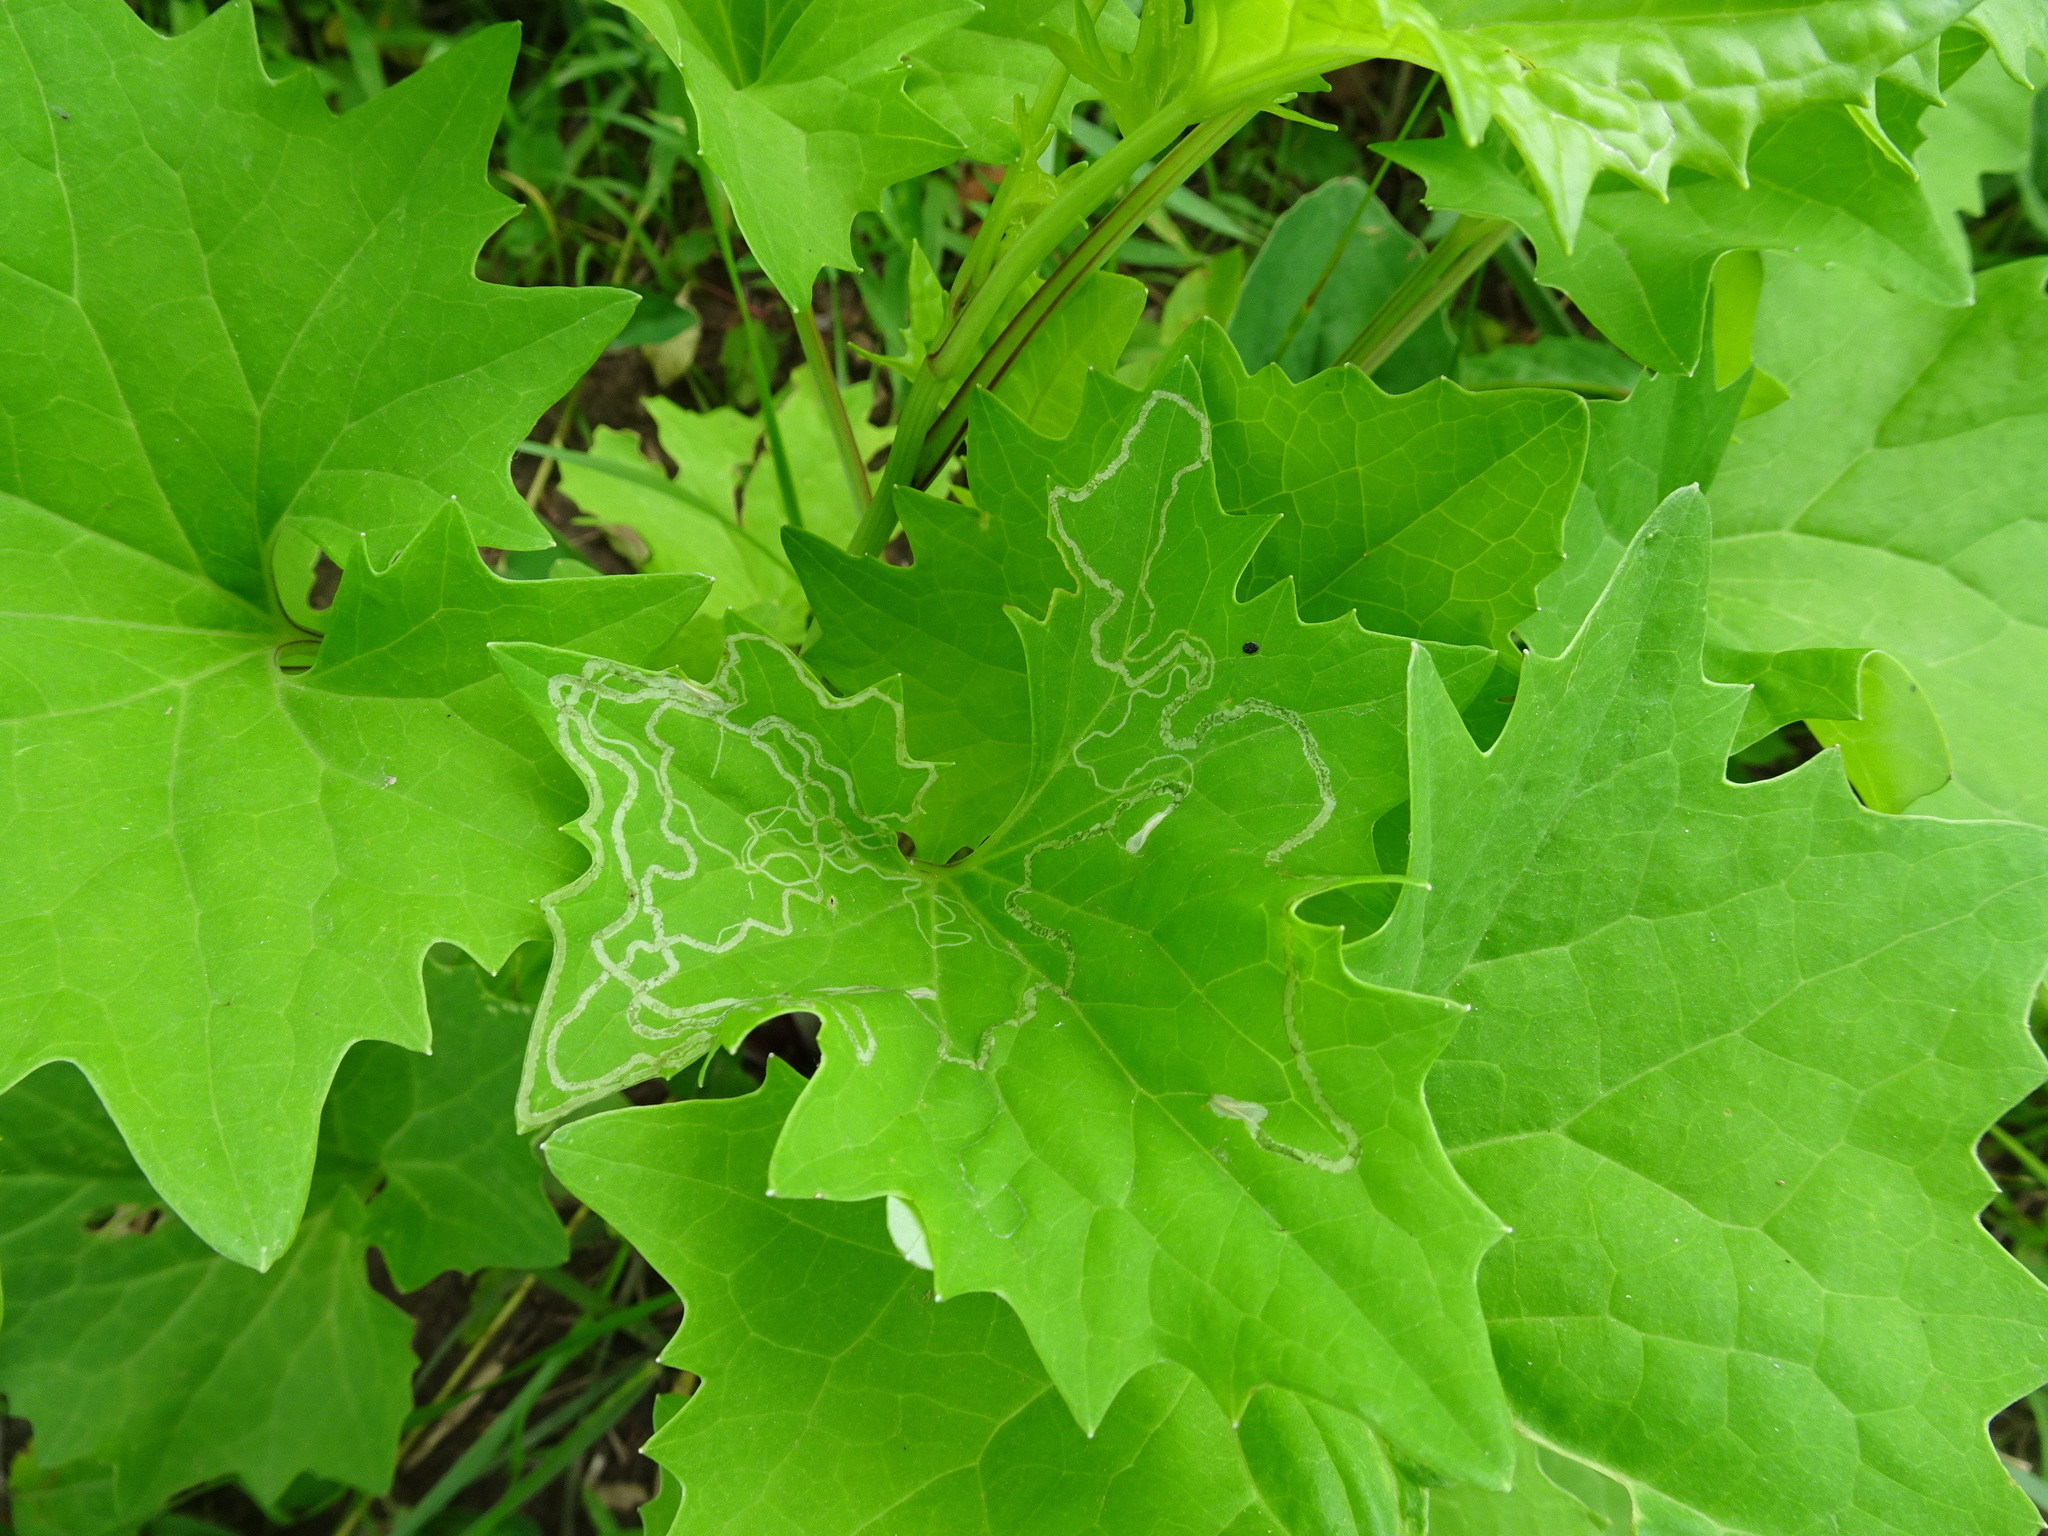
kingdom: Animalia
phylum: Arthropoda
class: Insecta
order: Lepidoptera
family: Gracillariidae
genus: Phyllocnistis
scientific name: Phyllocnistis insignis
